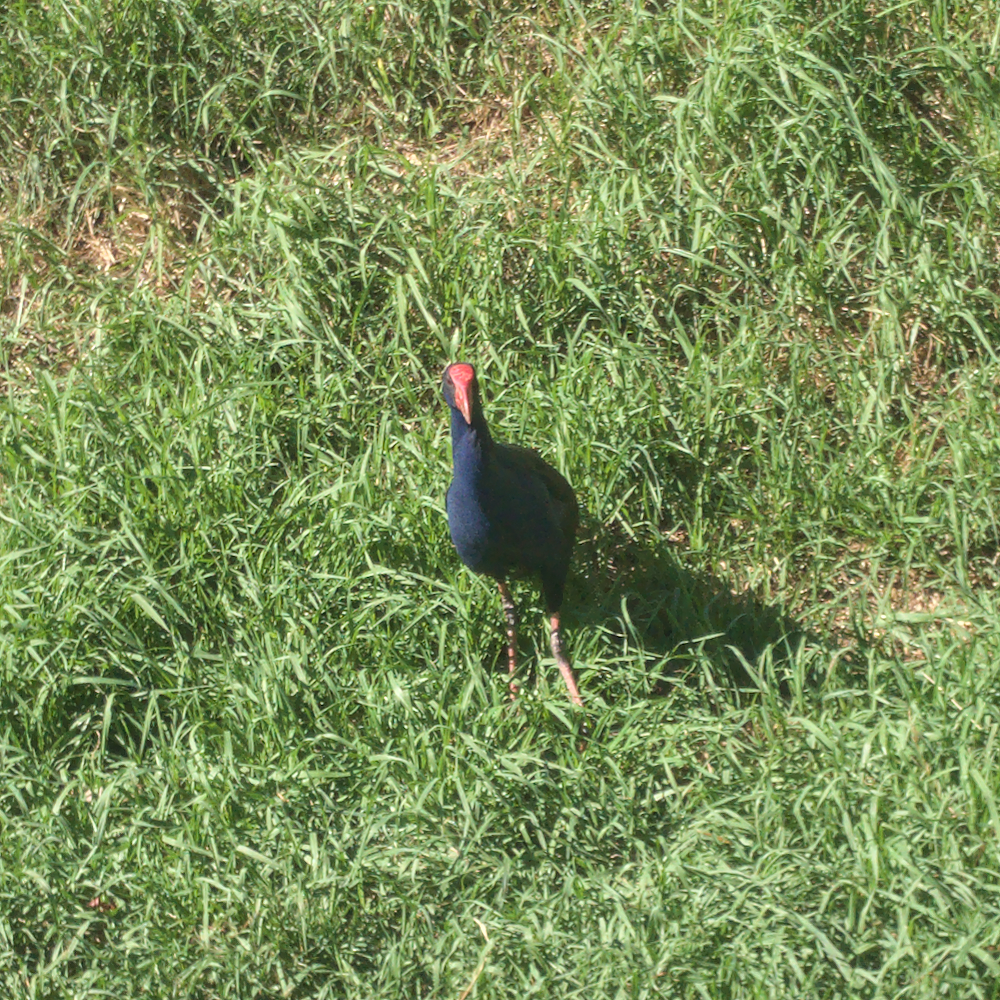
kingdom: Animalia
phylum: Chordata
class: Aves
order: Gruiformes
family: Rallidae
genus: Porphyrio
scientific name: Porphyrio melanotus
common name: Australasian swamphen
